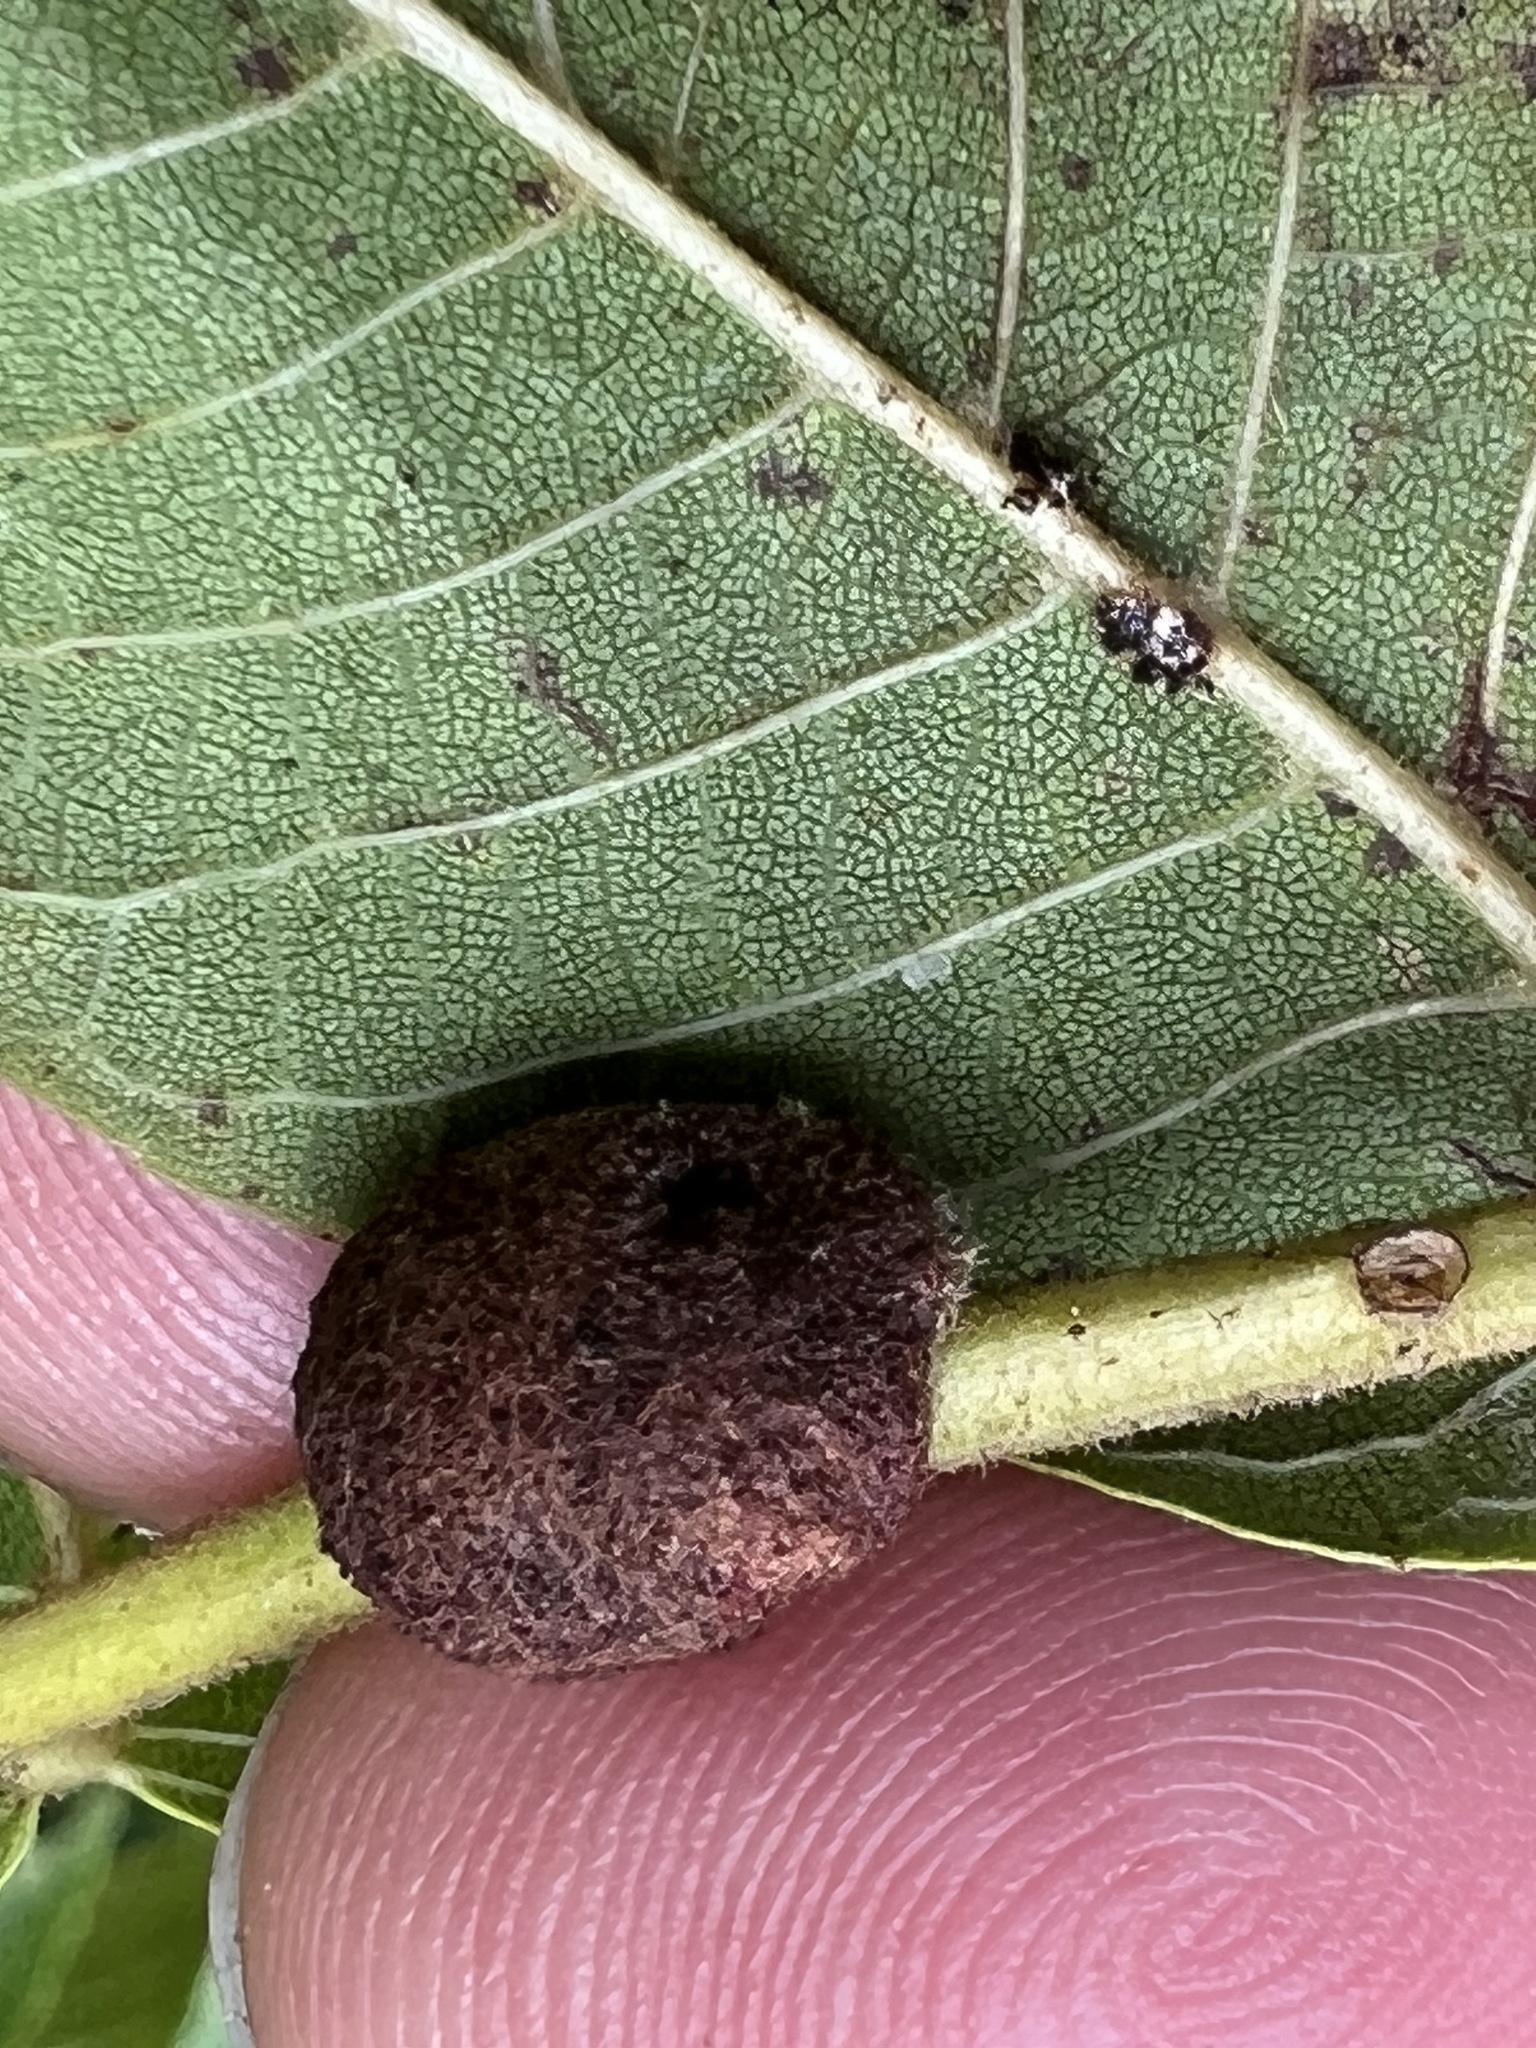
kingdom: Animalia
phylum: Arthropoda
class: Arachnida
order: Trombidiformes
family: Eriophyidae
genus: Aceria
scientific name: Aceria
